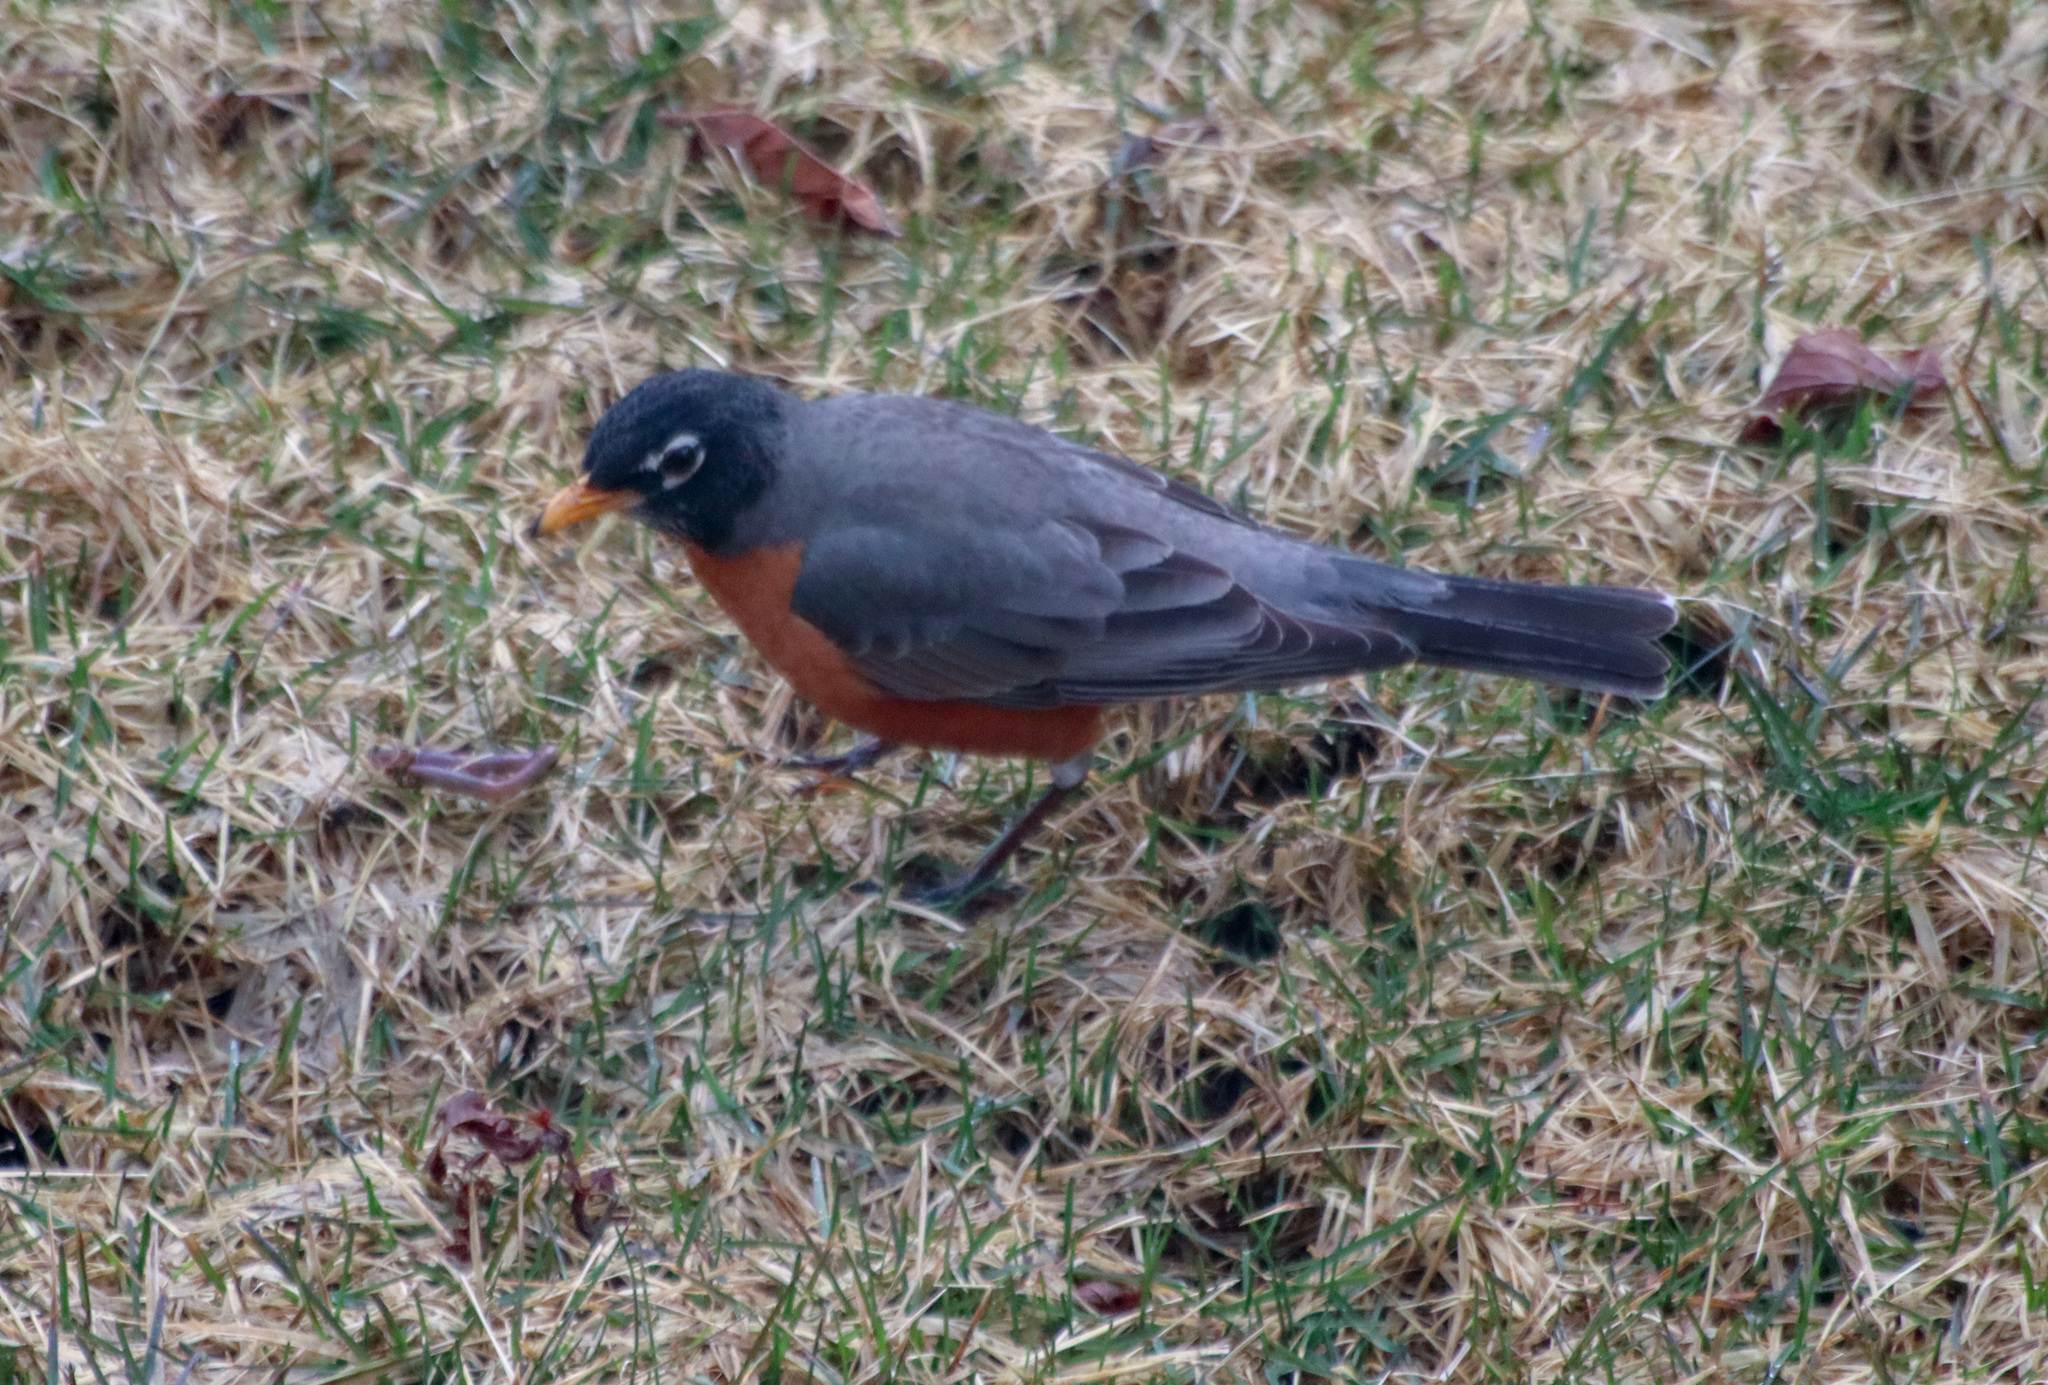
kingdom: Animalia
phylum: Chordata
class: Aves
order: Passeriformes
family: Turdidae
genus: Turdus
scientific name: Turdus migratorius
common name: American robin
